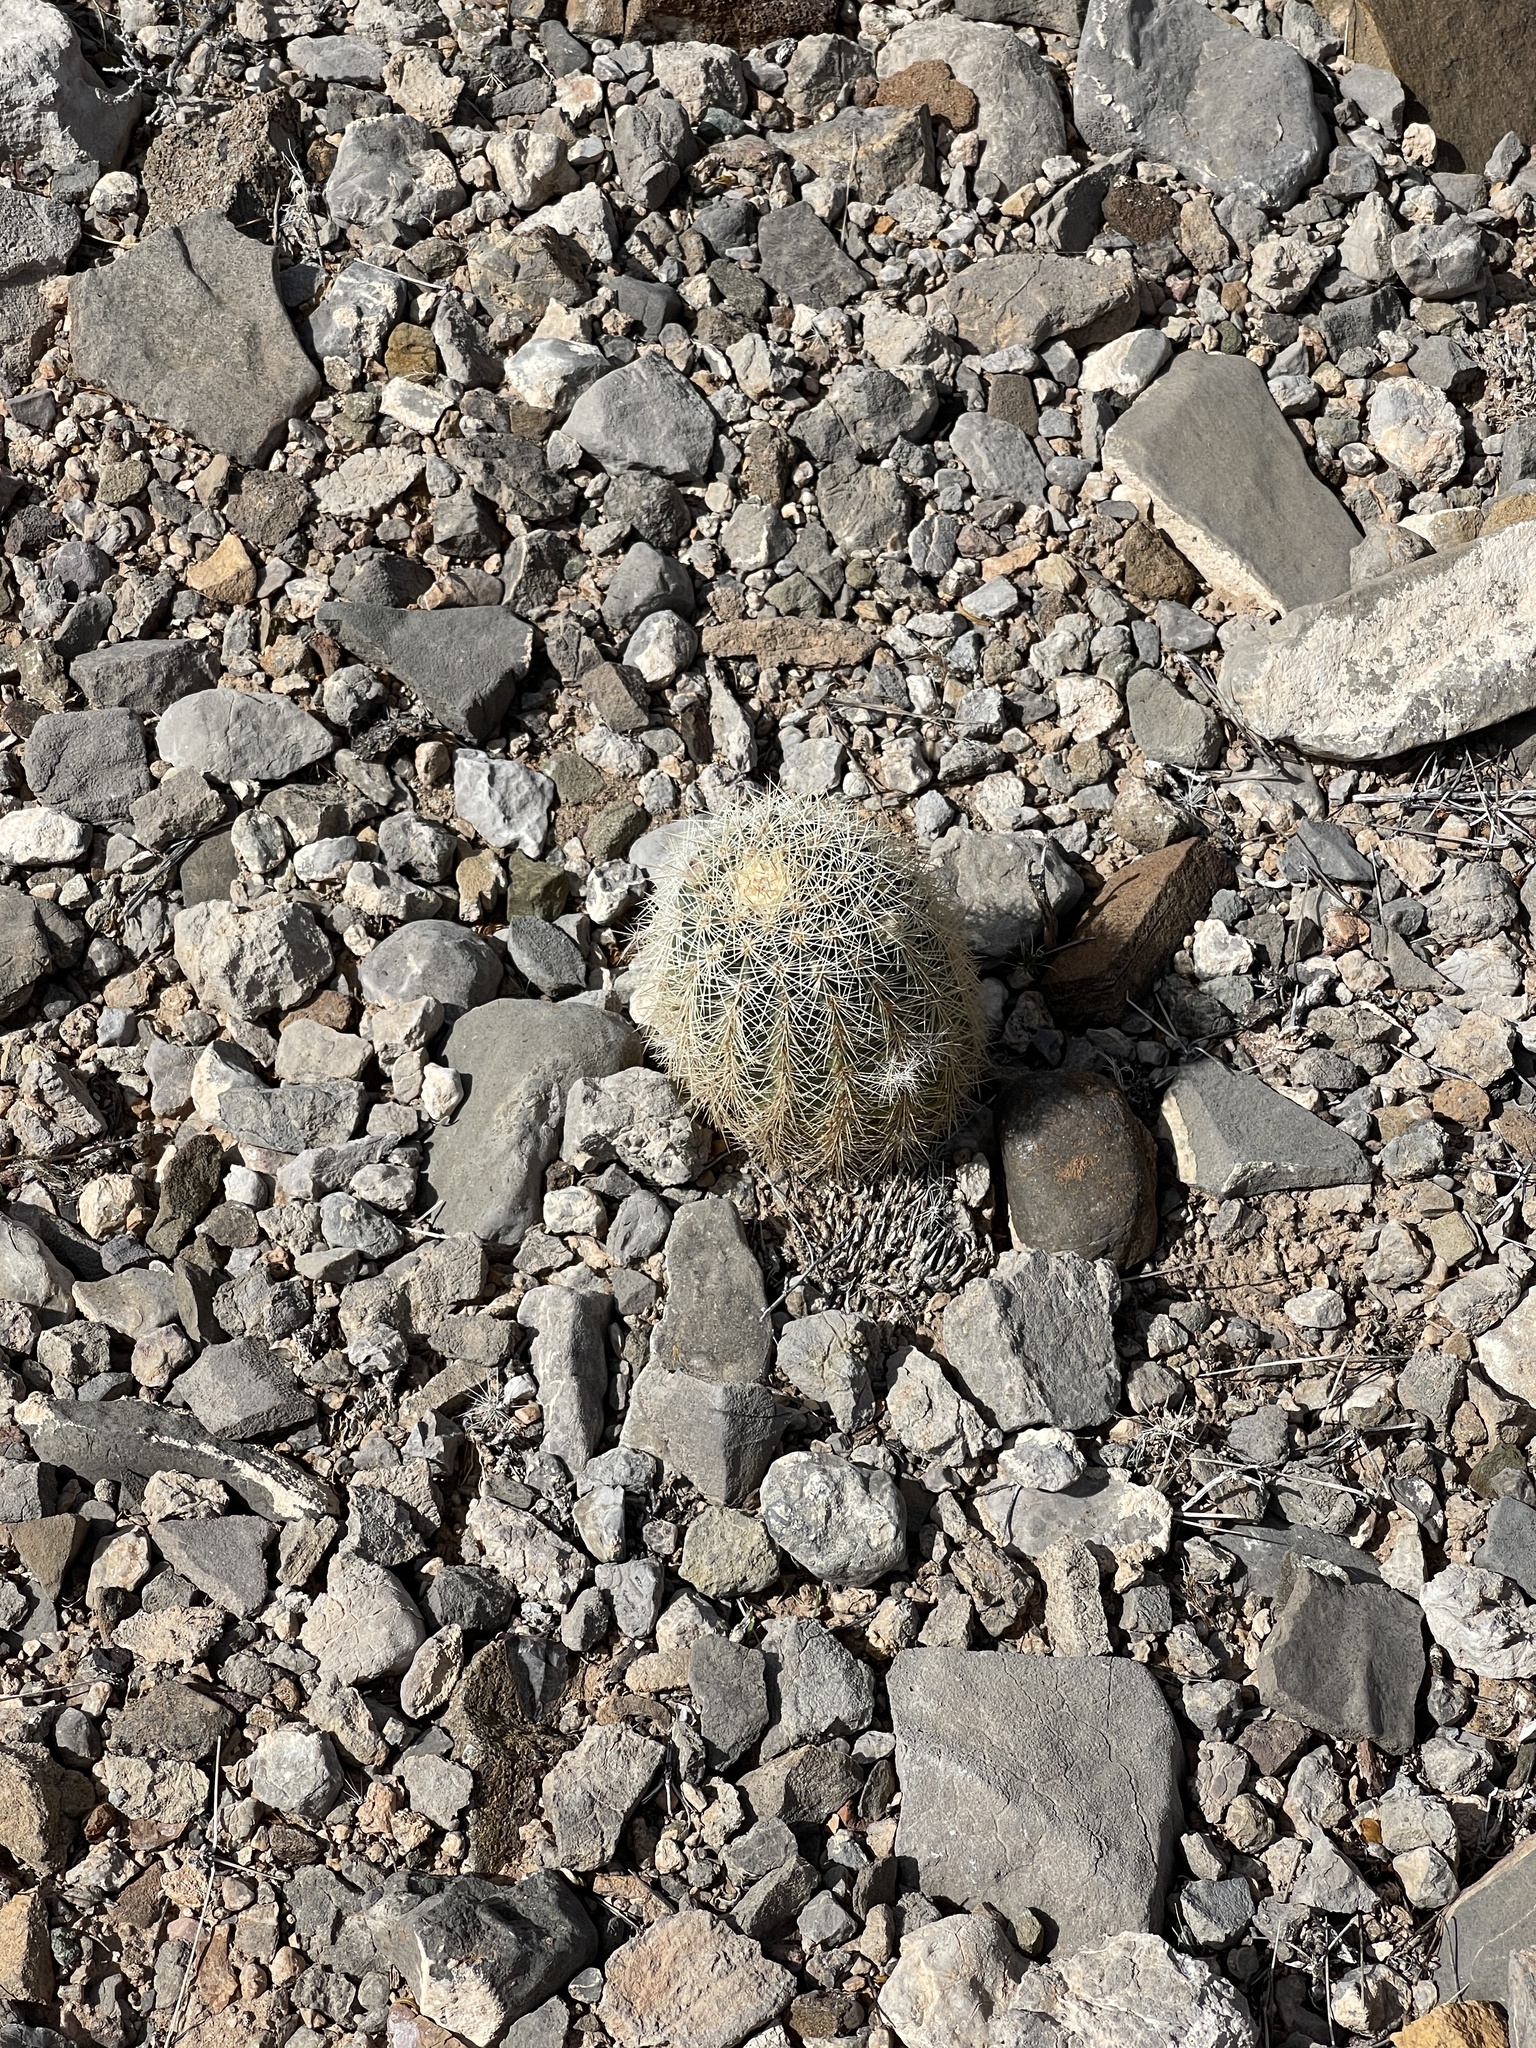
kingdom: Plantae
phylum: Tracheophyta
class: Magnoliopsida
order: Caryophyllales
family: Cactaceae
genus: Echinocereus
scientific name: Echinocereus dasyacanthus
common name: Spiny hedgehog cactus
